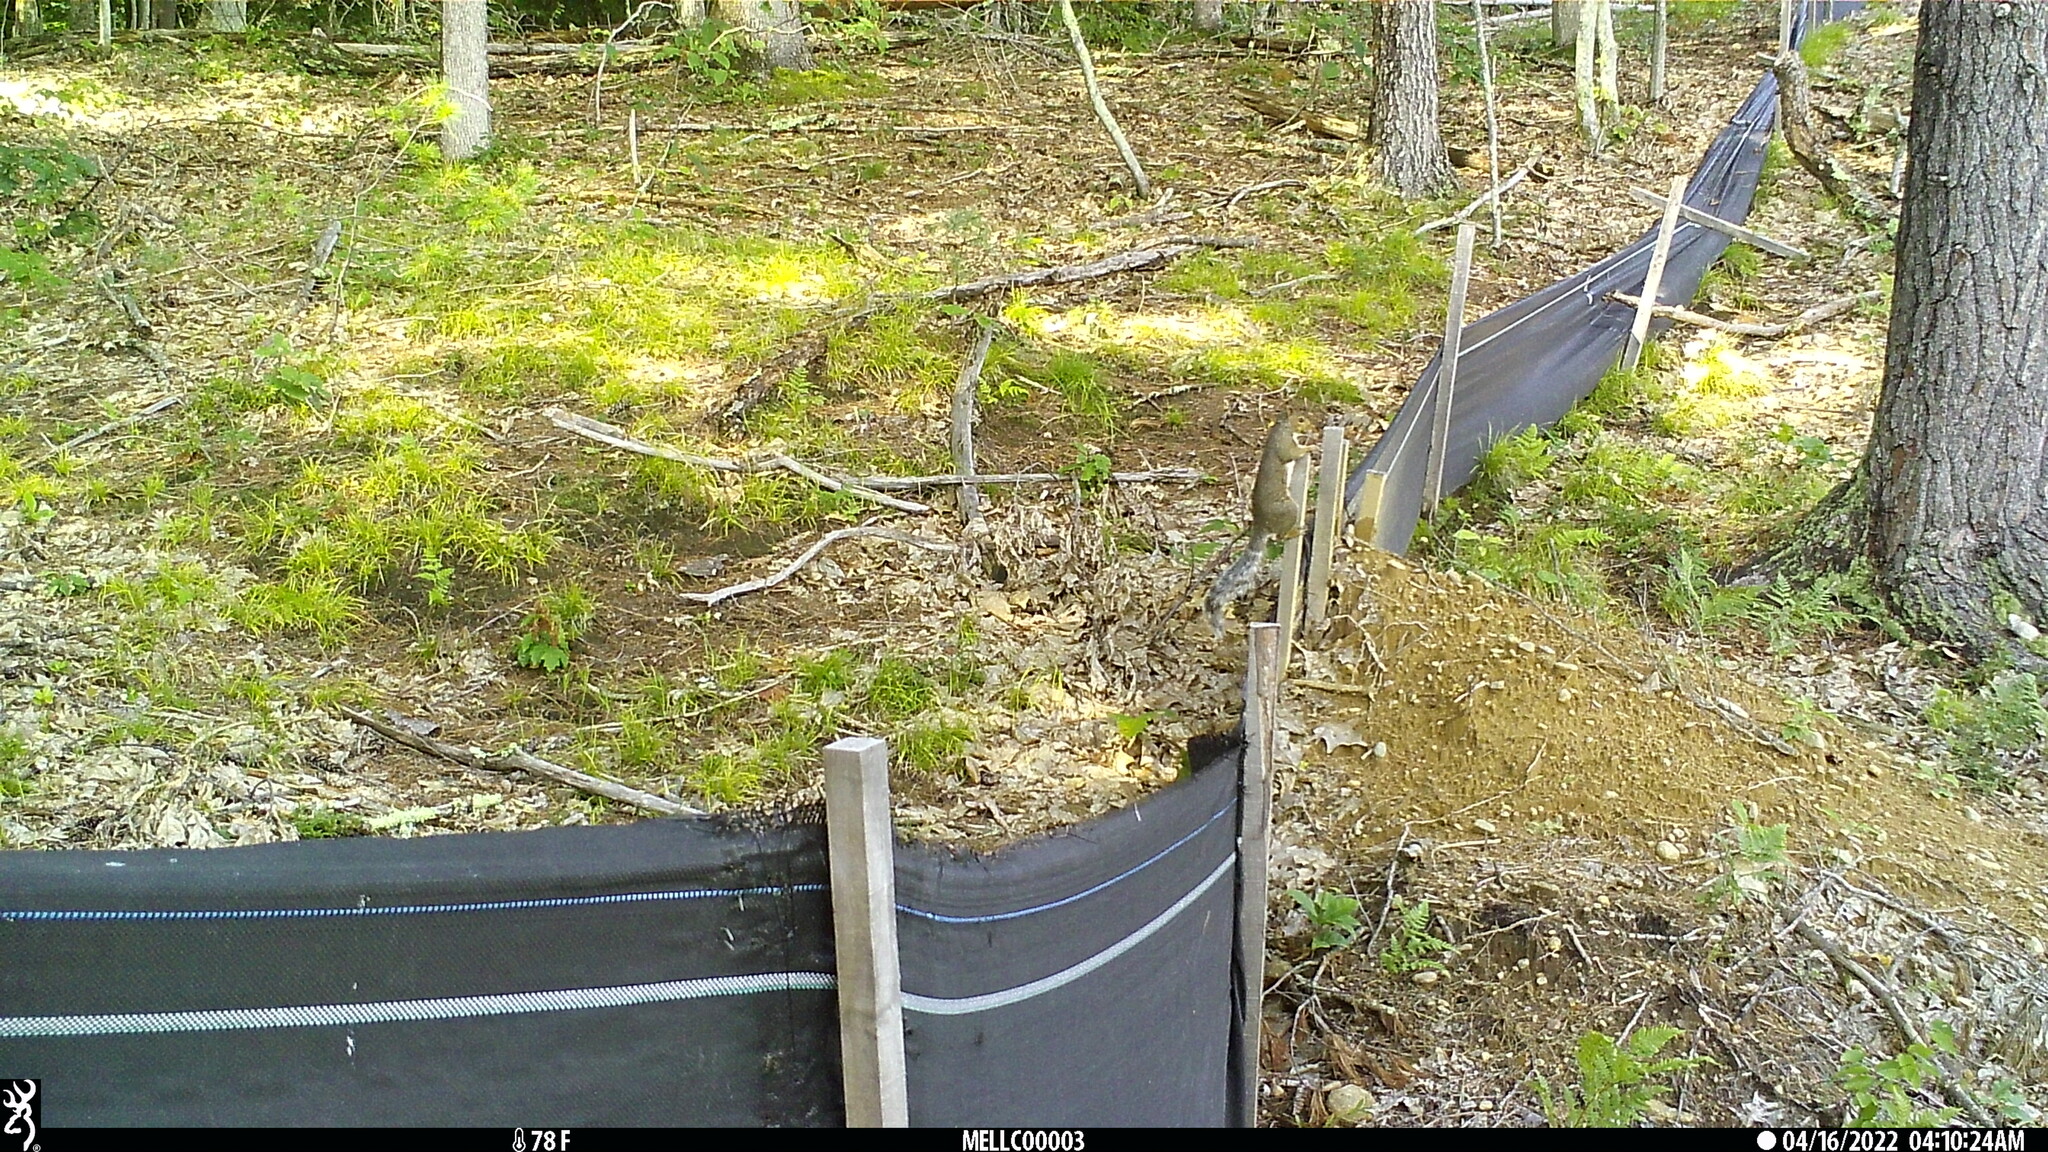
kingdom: Animalia
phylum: Chordata
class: Mammalia
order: Rodentia
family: Sciuridae
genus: Sciurus
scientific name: Sciurus carolinensis
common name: Eastern gray squirrel
